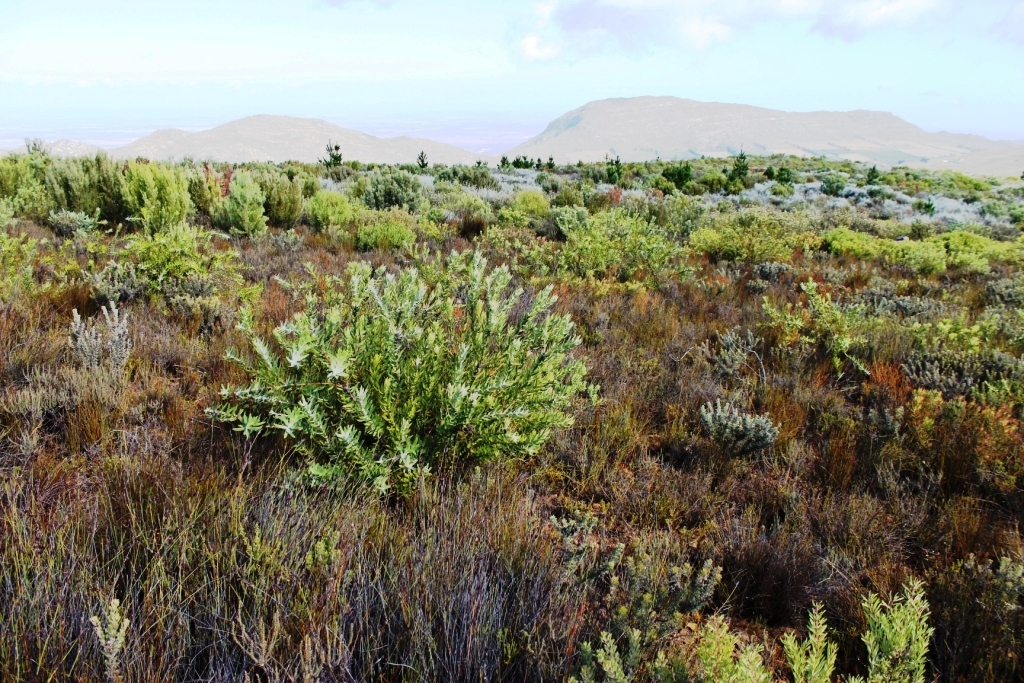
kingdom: Plantae
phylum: Tracheophyta
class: Magnoliopsida
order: Proteales
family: Proteaceae
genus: Leucospermum
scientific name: Leucospermum vestitum
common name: Silky-hair pincushion
